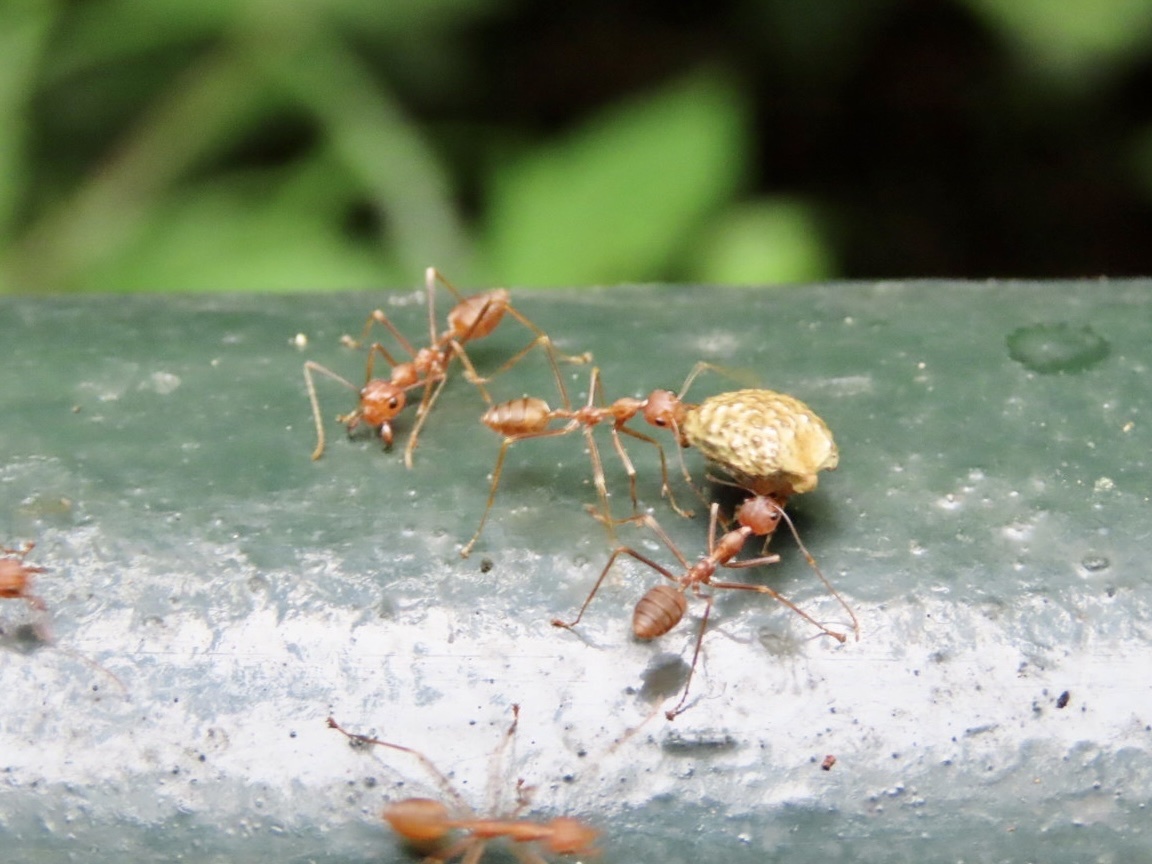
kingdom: Animalia
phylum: Arthropoda
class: Insecta
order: Hymenoptera
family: Formicidae
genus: Oecophylla
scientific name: Oecophylla smaragdina
